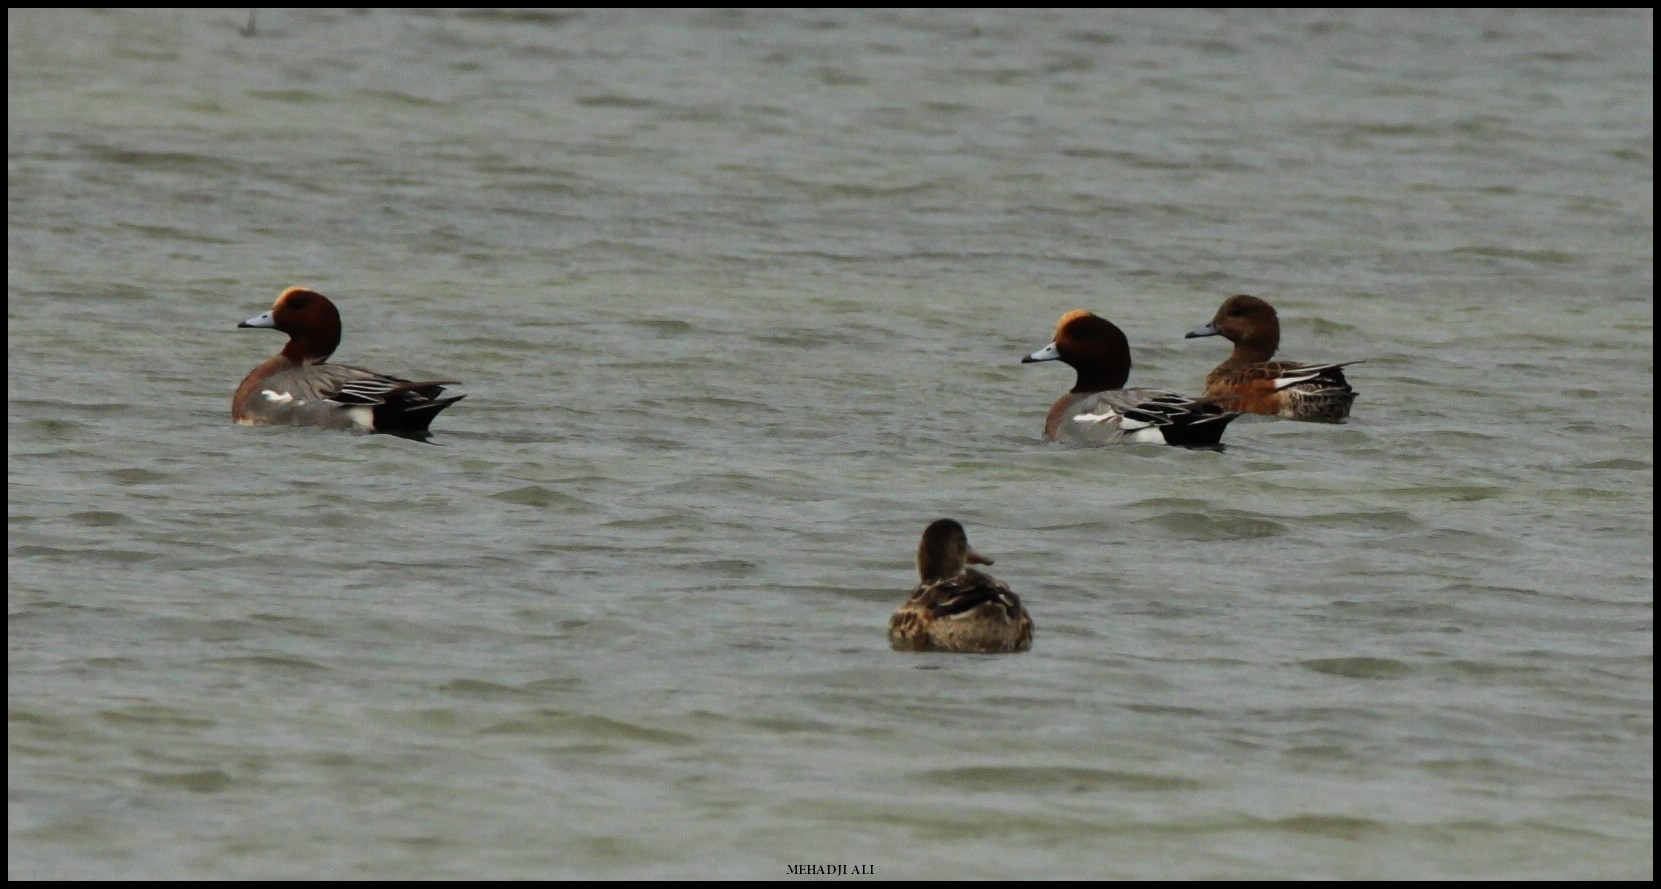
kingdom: Animalia
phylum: Chordata
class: Aves
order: Anseriformes
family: Anatidae
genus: Mareca
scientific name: Mareca penelope
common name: Eurasian wigeon
